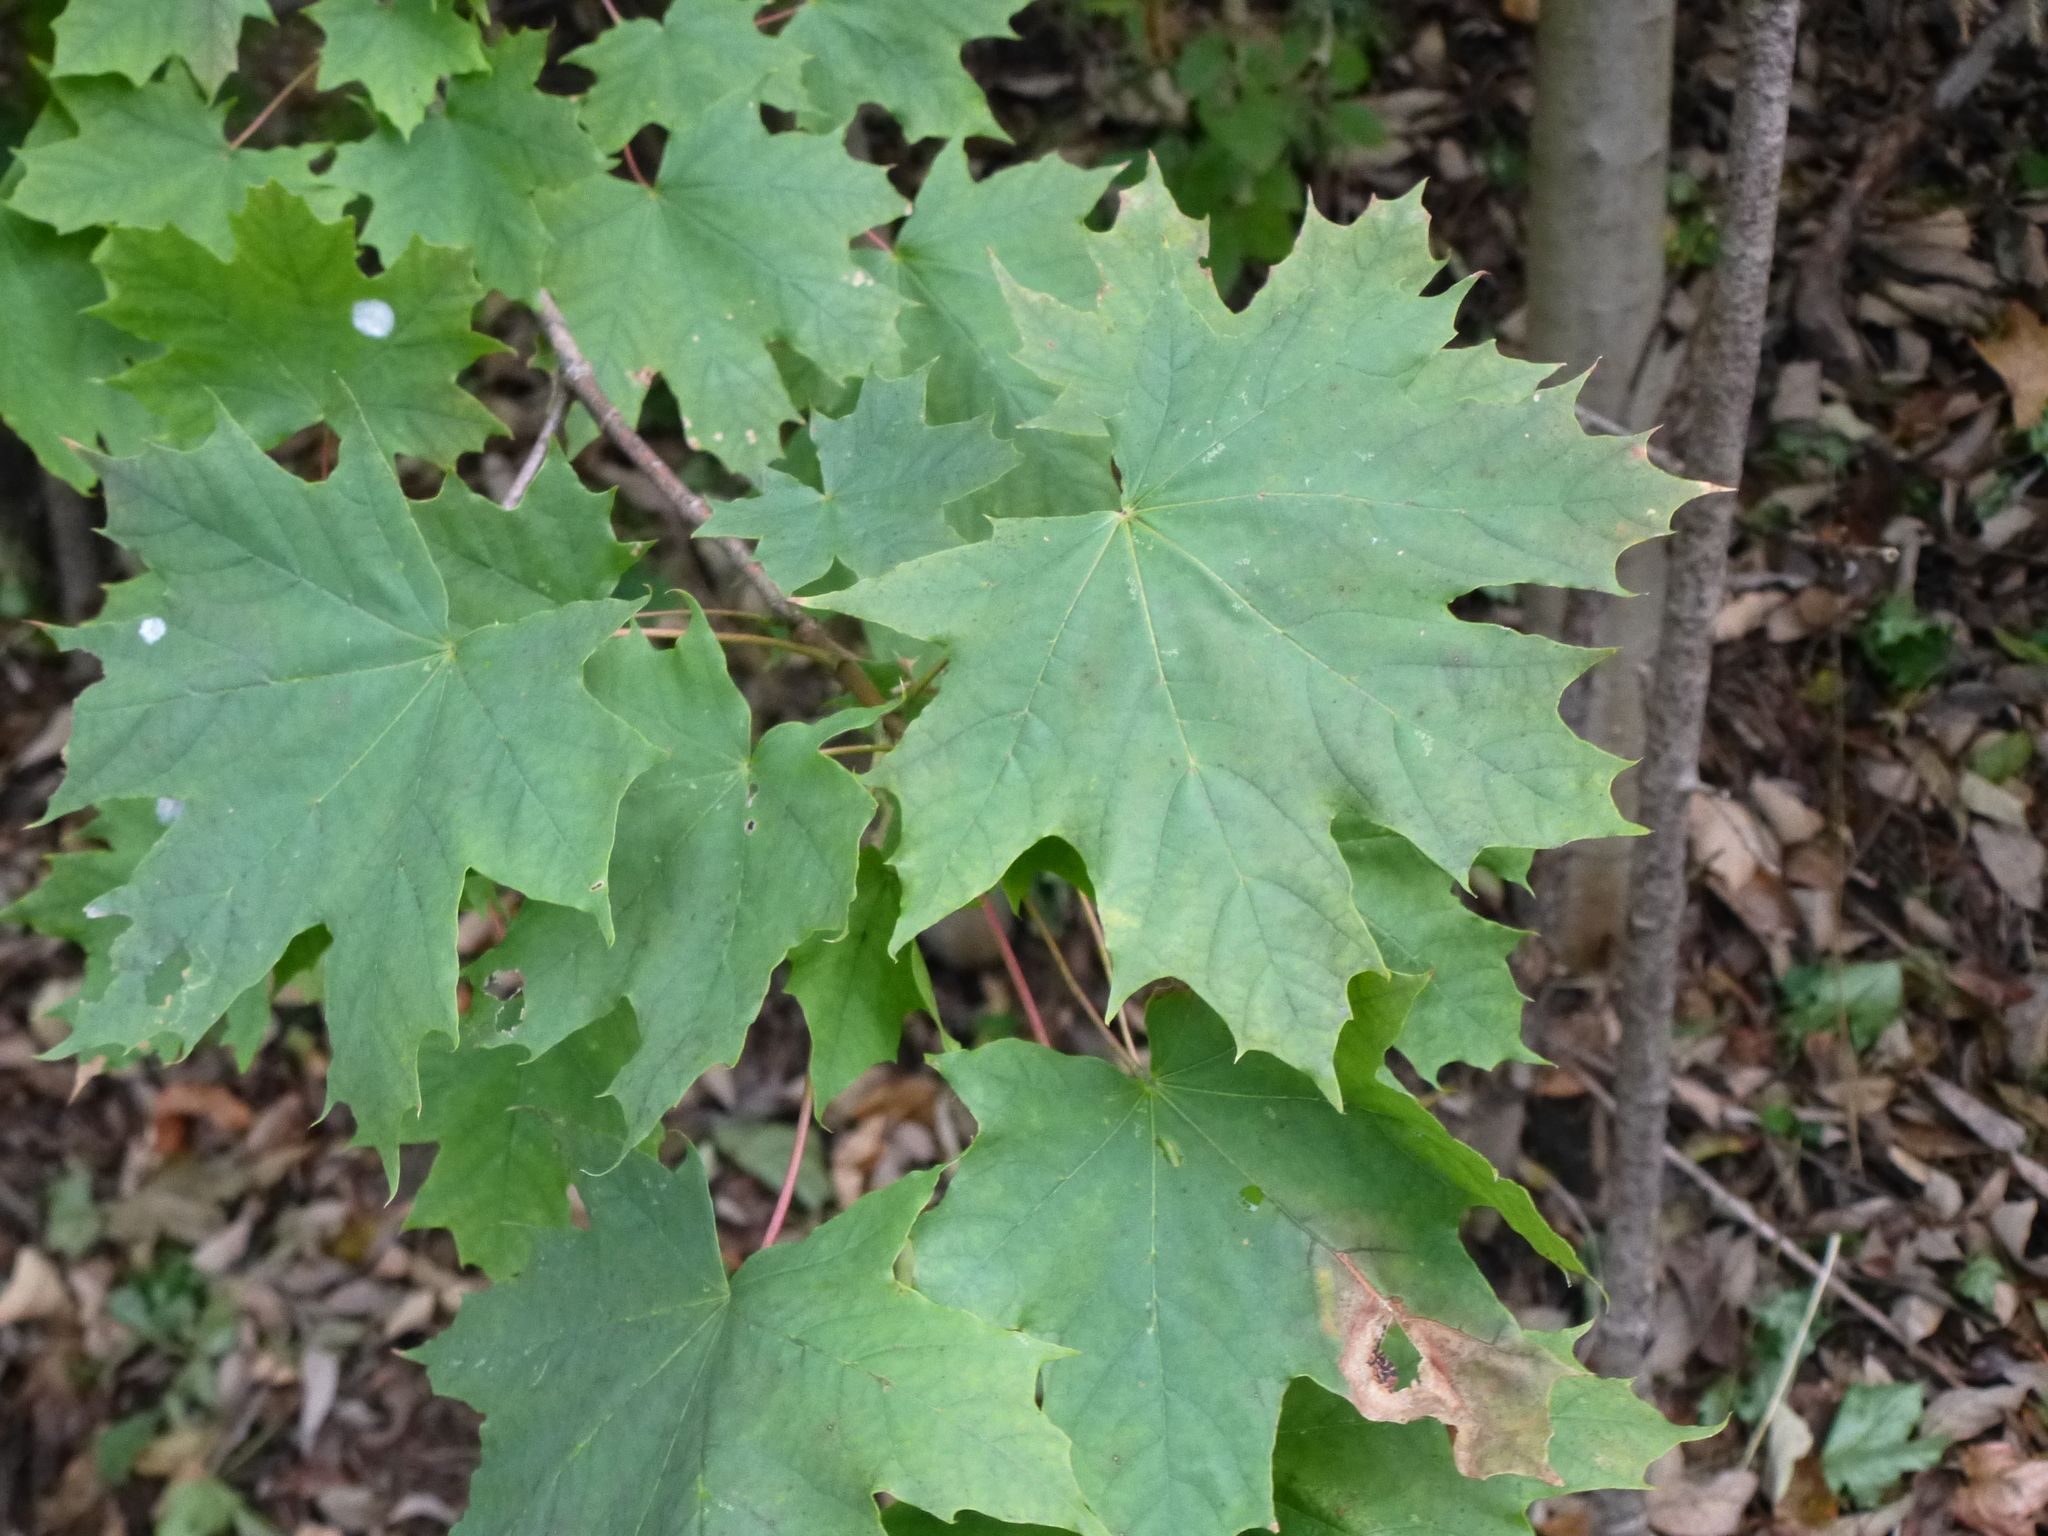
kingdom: Plantae
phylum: Tracheophyta
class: Magnoliopsida
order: Sapindales
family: Sapindaceae
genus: Acer
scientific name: Acer platanoides
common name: Norway maple
